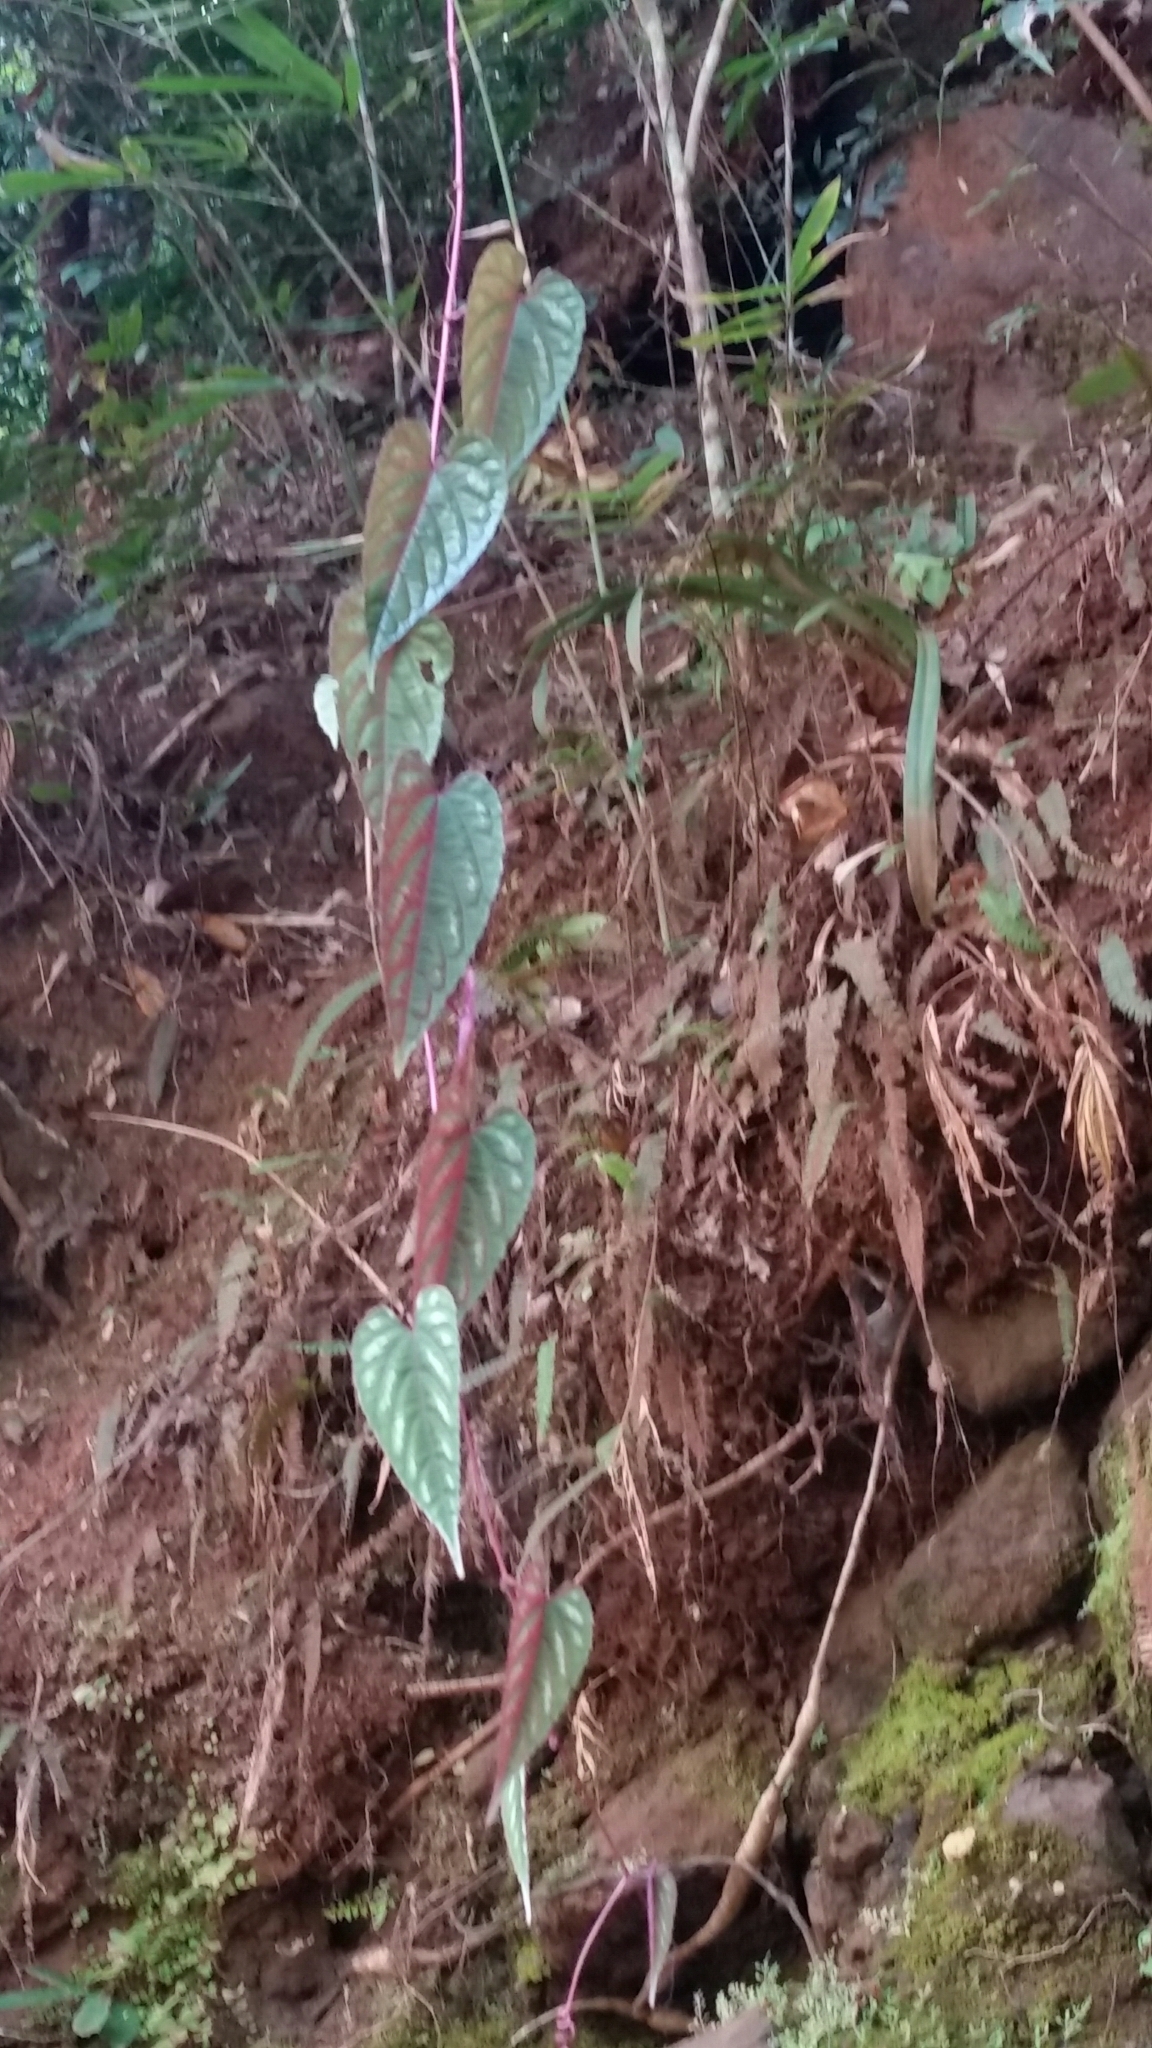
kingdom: Plantae
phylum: Tracheophyta
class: Magnoliopsida
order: Vitales
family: Vitaceae
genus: Cissus
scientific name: Cissus discolor
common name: Climbing-begonia
